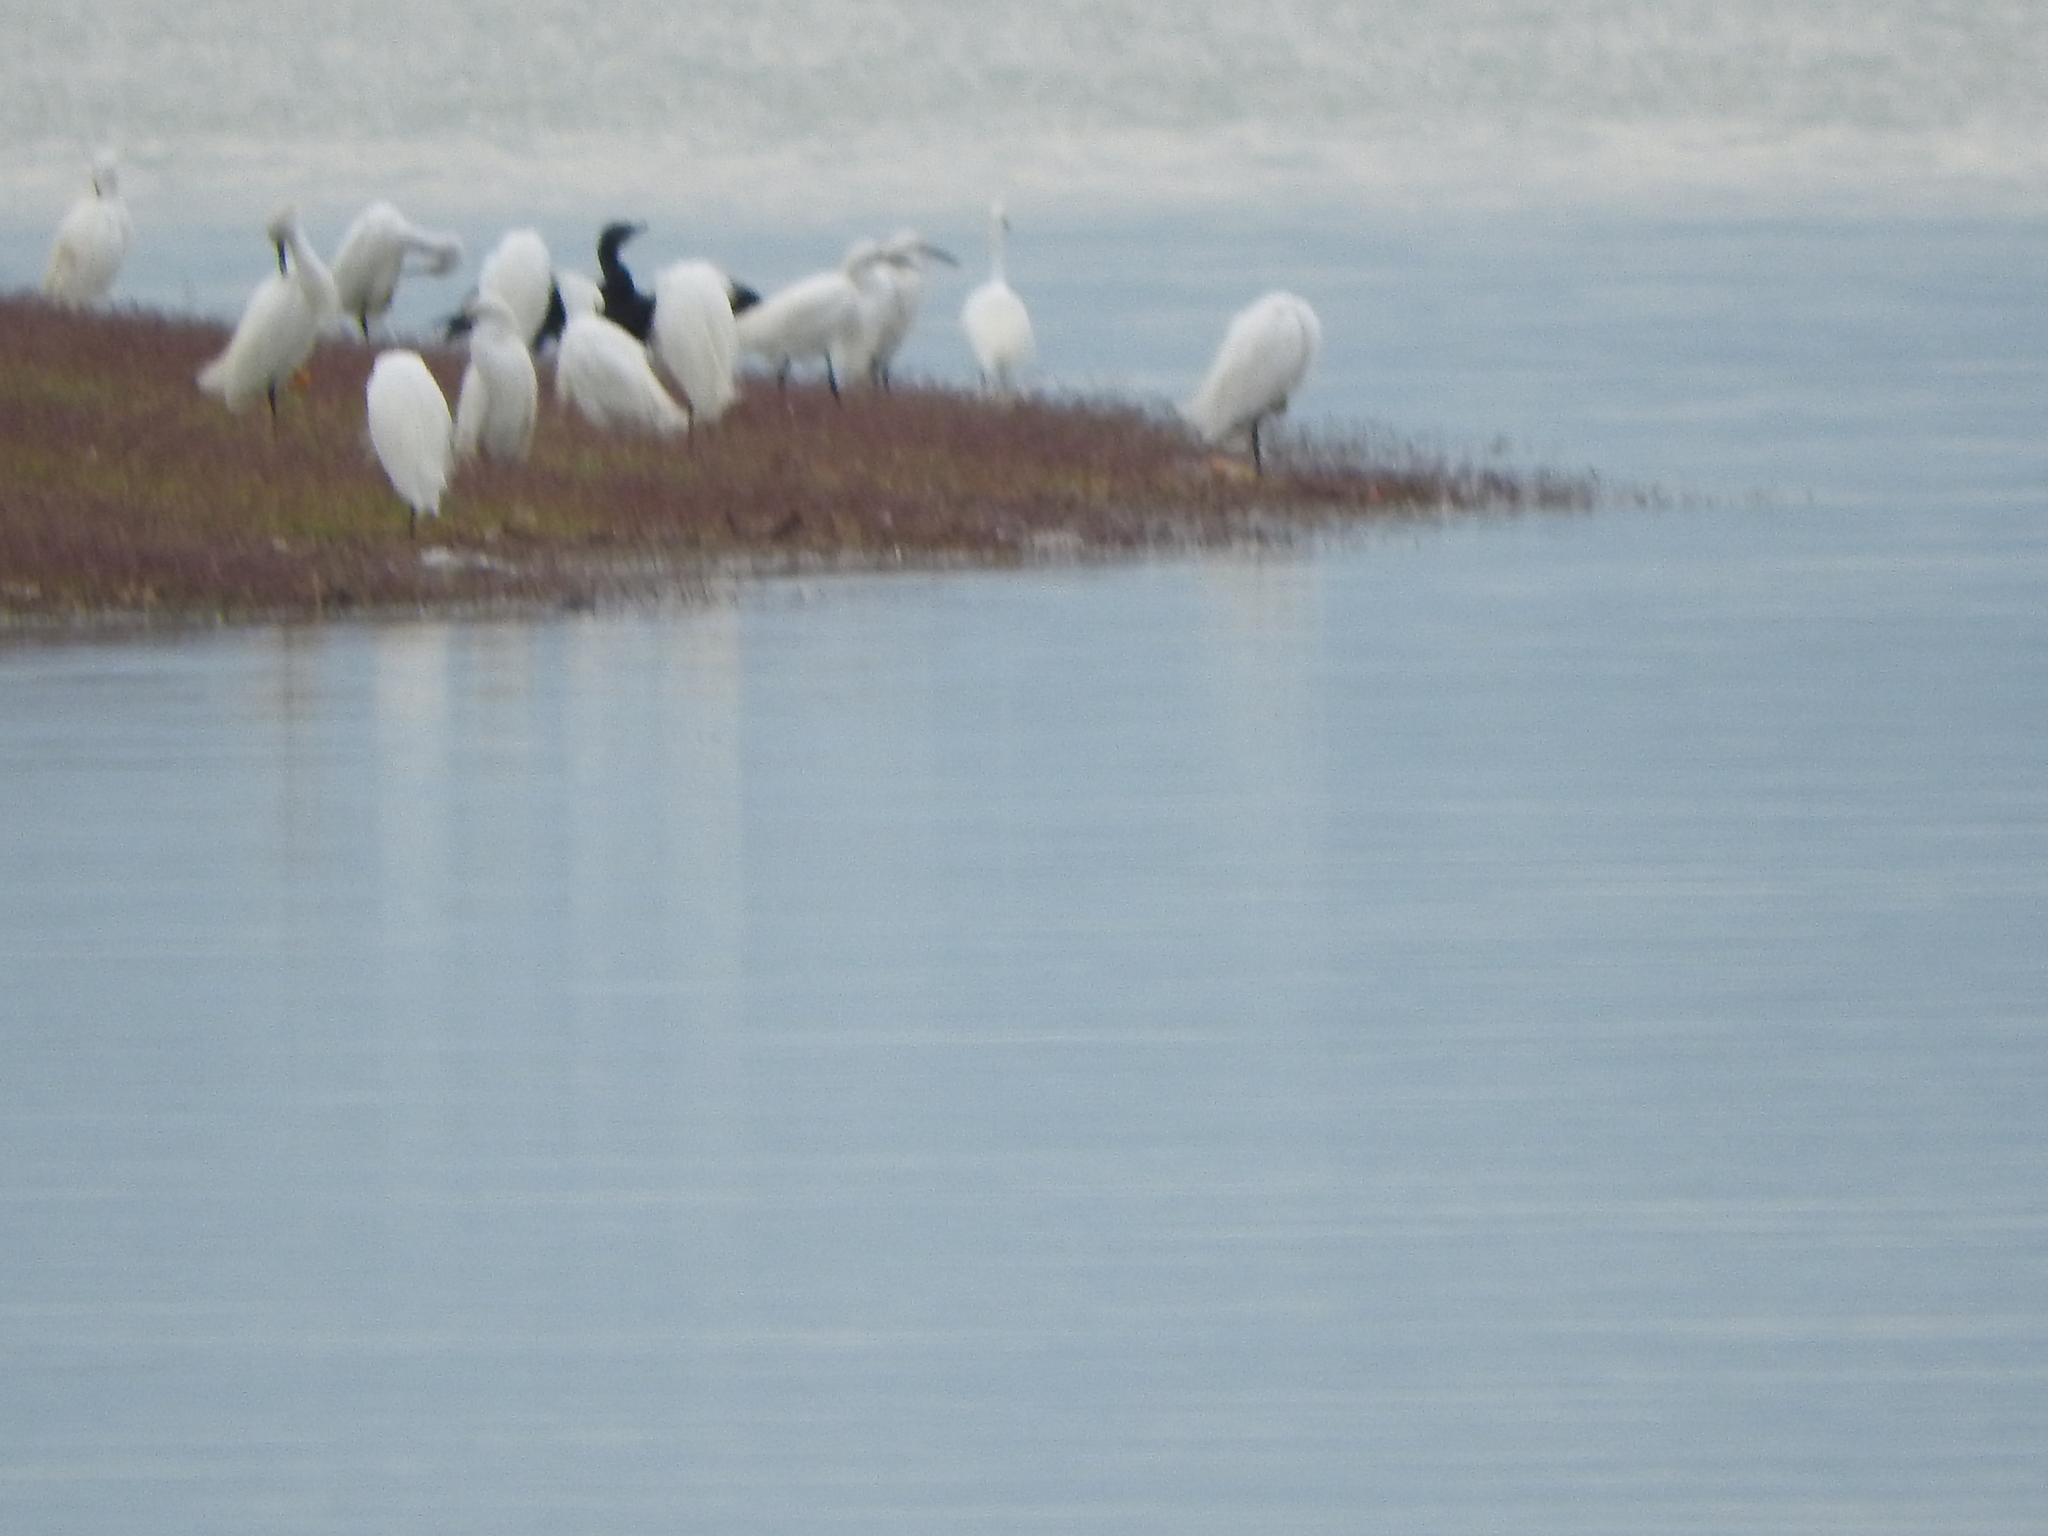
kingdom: Animalia
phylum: Chordata
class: Aves
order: Pelecaniformes
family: Ardeidae
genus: Egretta
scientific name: Egretta thula
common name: Snowy egret
